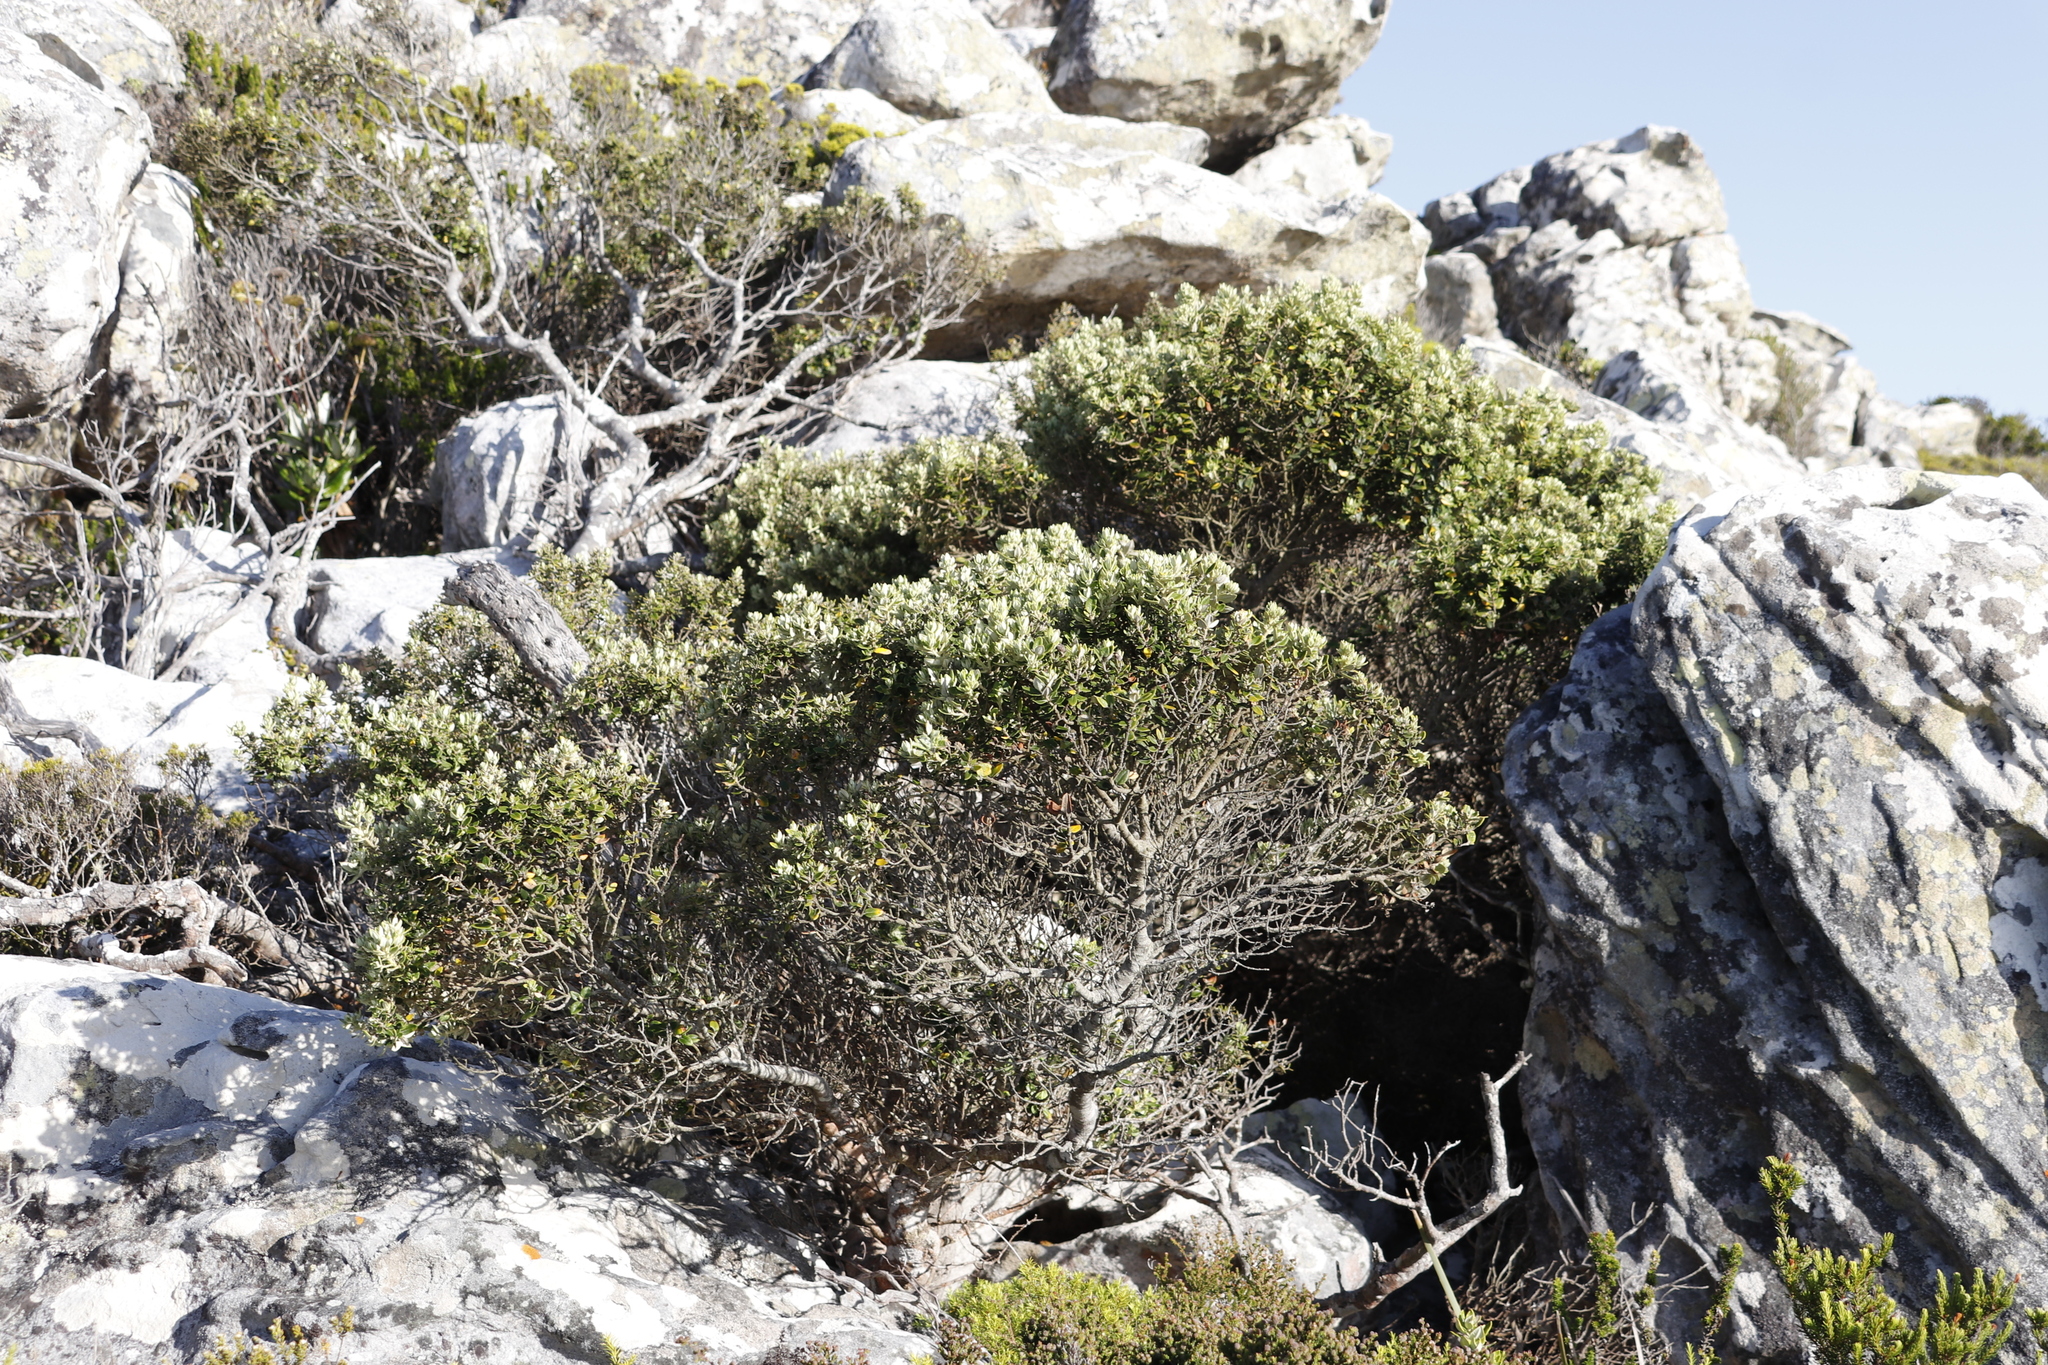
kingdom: Plantae
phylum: Tracheophyta
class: Magnoliopsida
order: Rosales
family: Rhamnaceae
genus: Phylica
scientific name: Phylica buxifolia
